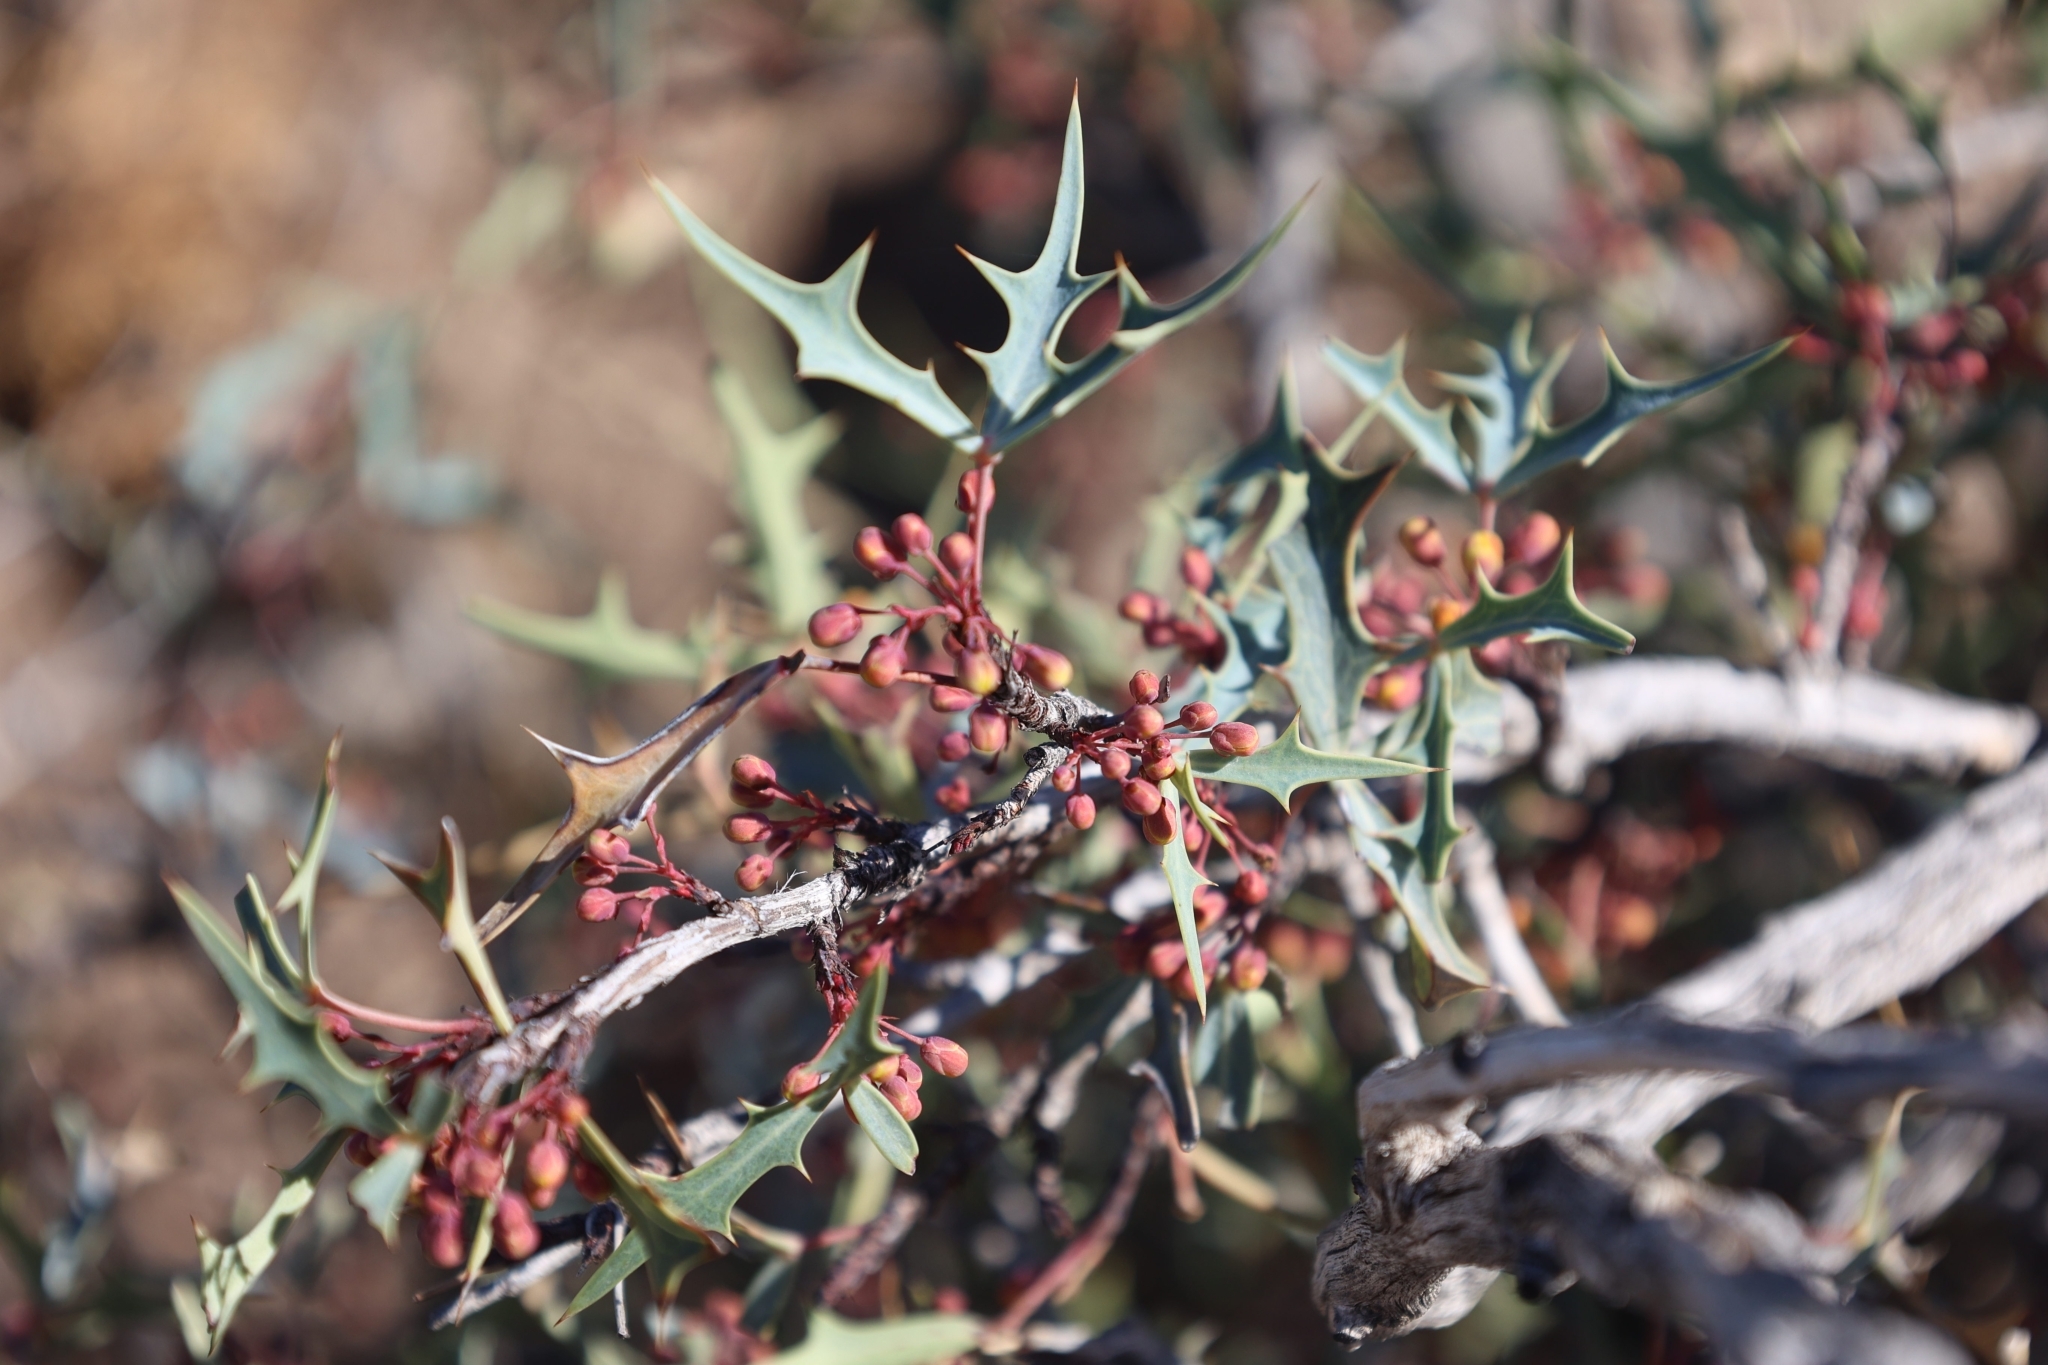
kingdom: Plantae
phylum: Tracheophyta
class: Magnoliopsida
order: Ranunculales
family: Berberidaceae
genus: Alloberberis
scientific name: Alloberberis trifoliolata
